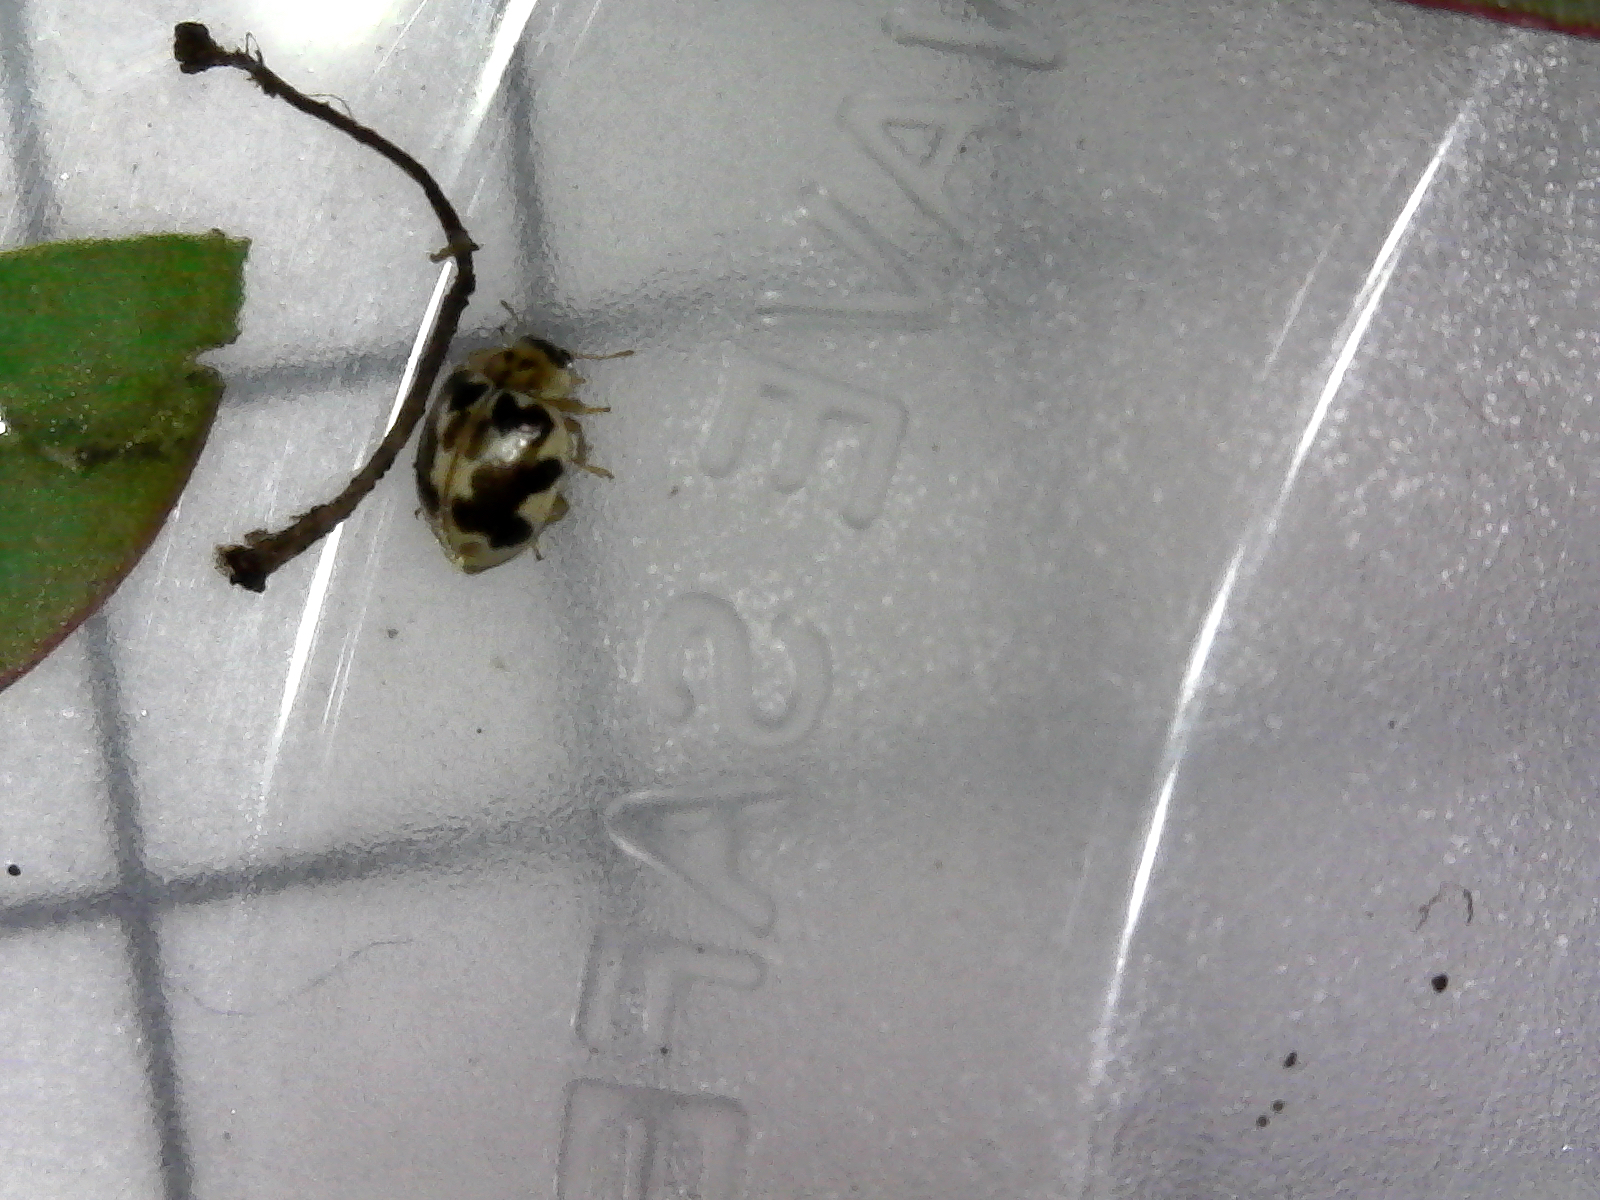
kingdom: Animalia
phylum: Arthropoda
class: Insecta
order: Coleoptera
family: Coccinellidae
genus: Psyllobora
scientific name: Psyllobora vigintimaculata
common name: Ladybird beetle
